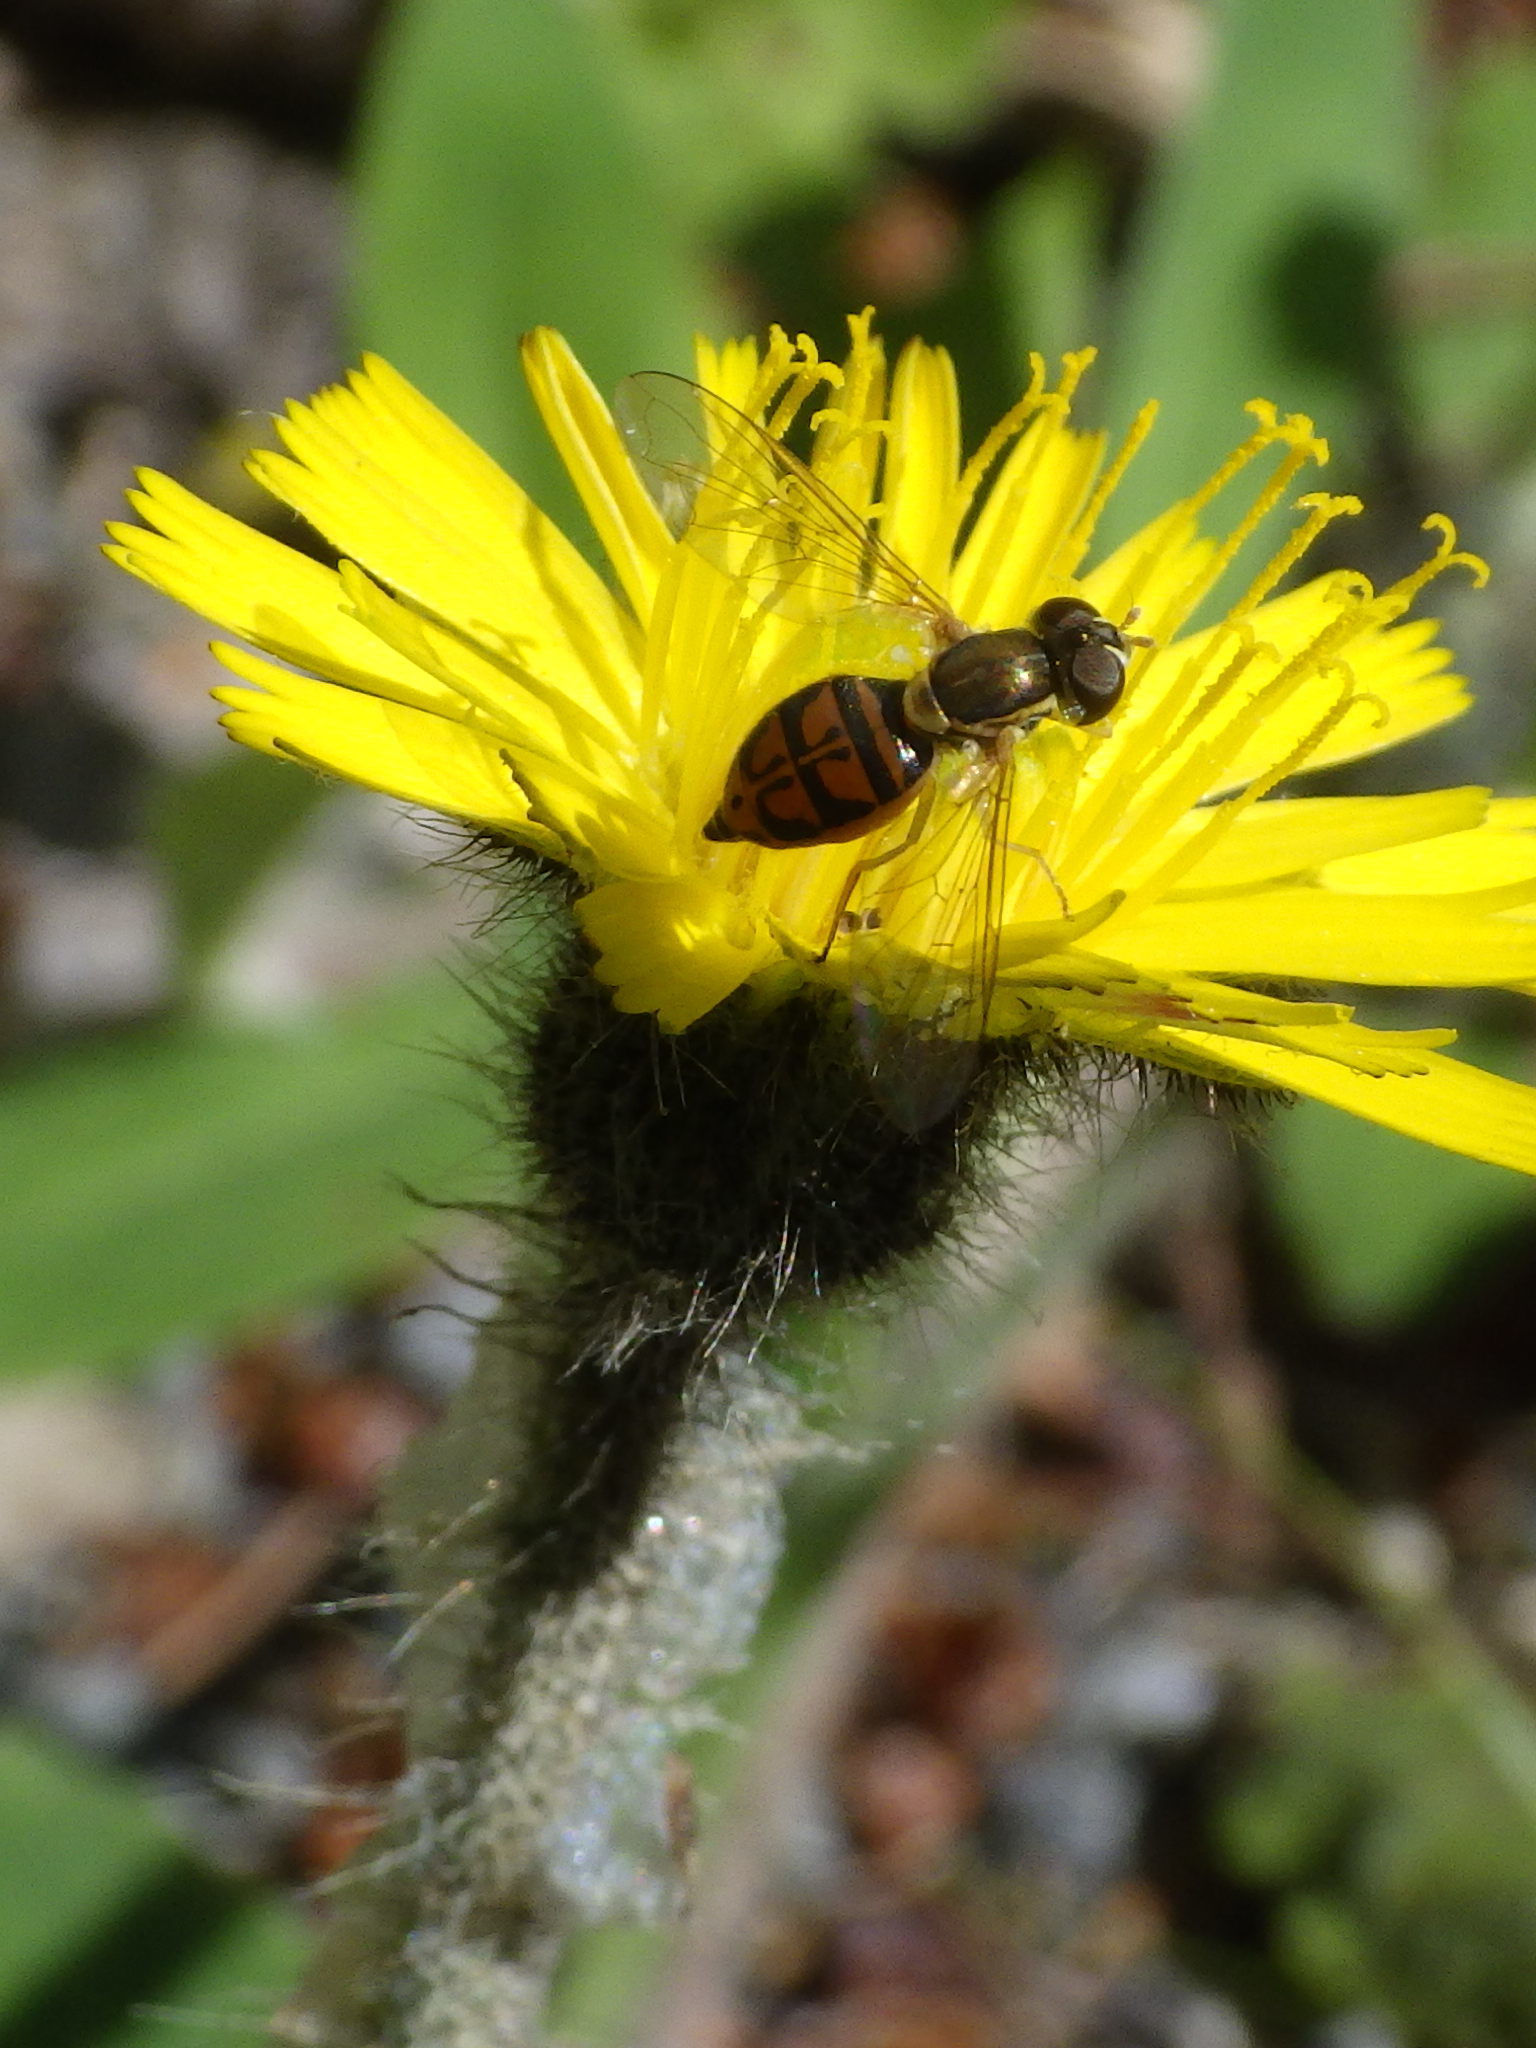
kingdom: Animalia
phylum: Arthropoda
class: Insecta
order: Diptera
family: Syrphidae
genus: Toxomerus
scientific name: Toxomerus marginatus
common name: Syrphid fly
